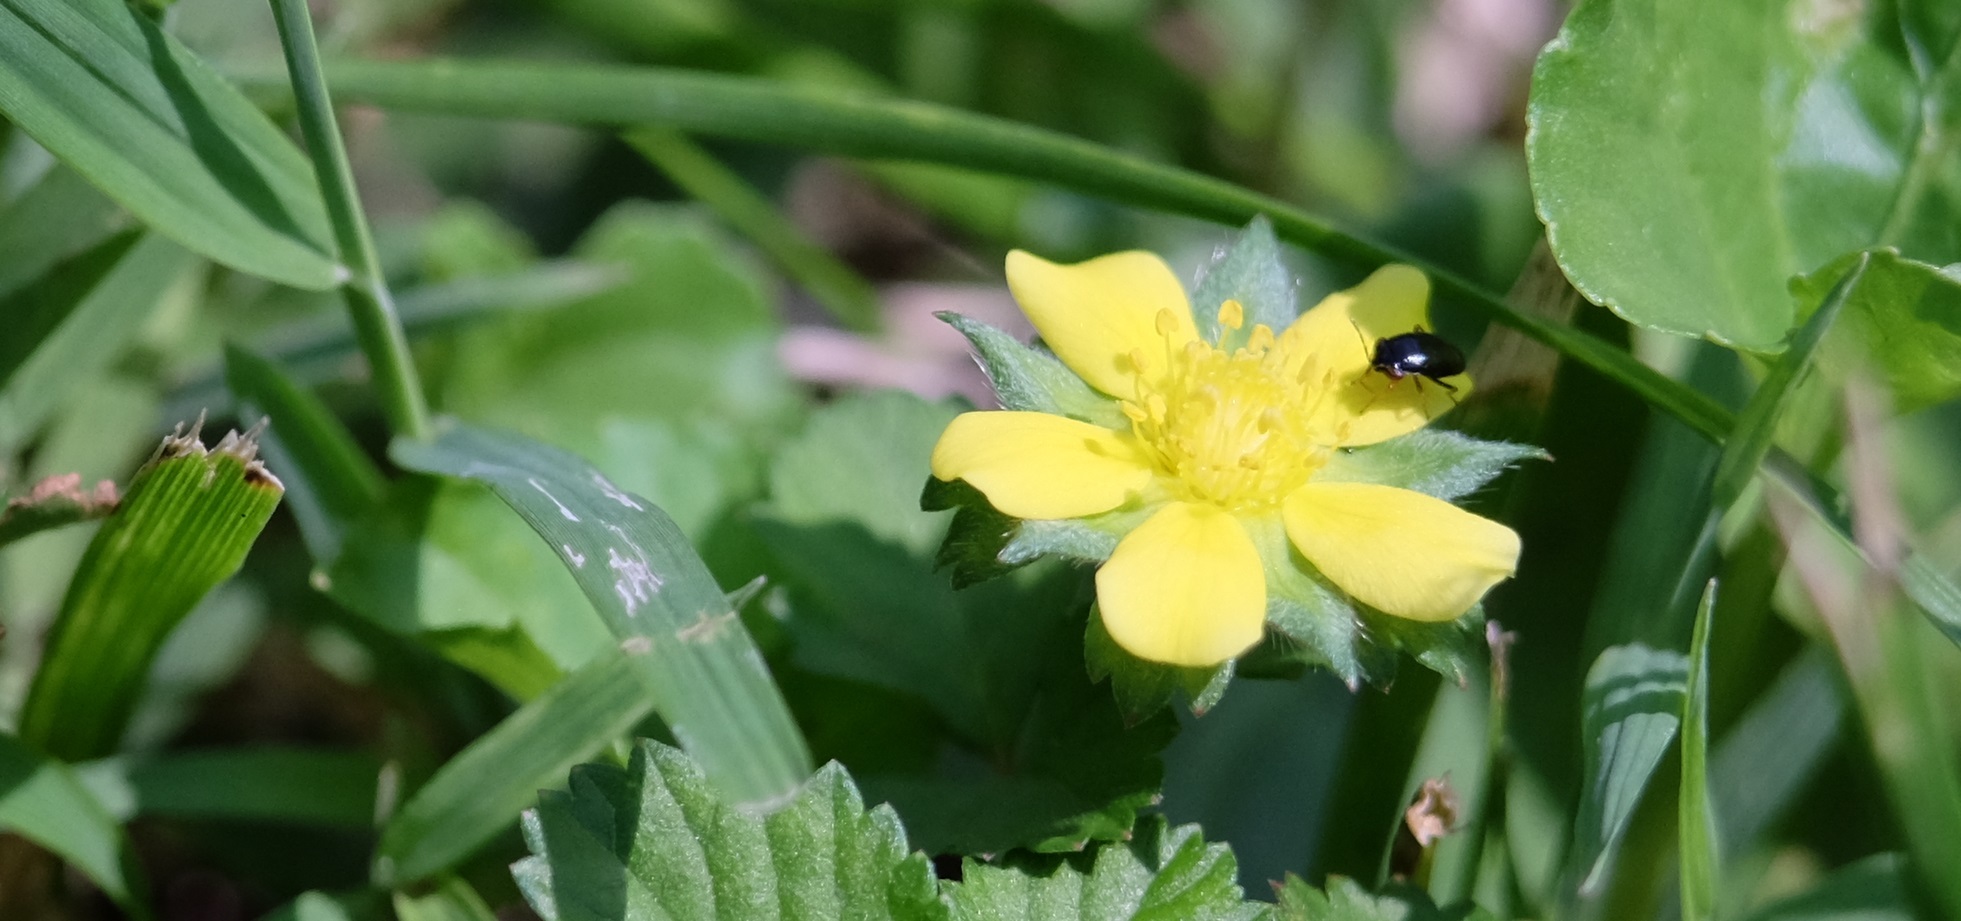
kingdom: Plantae
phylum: Tracheophyta
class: Magnoliopsida
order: Rosales
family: Rosaceae
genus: Potentilla
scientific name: Potentilla indica
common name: Yellow-flowered strawberry
